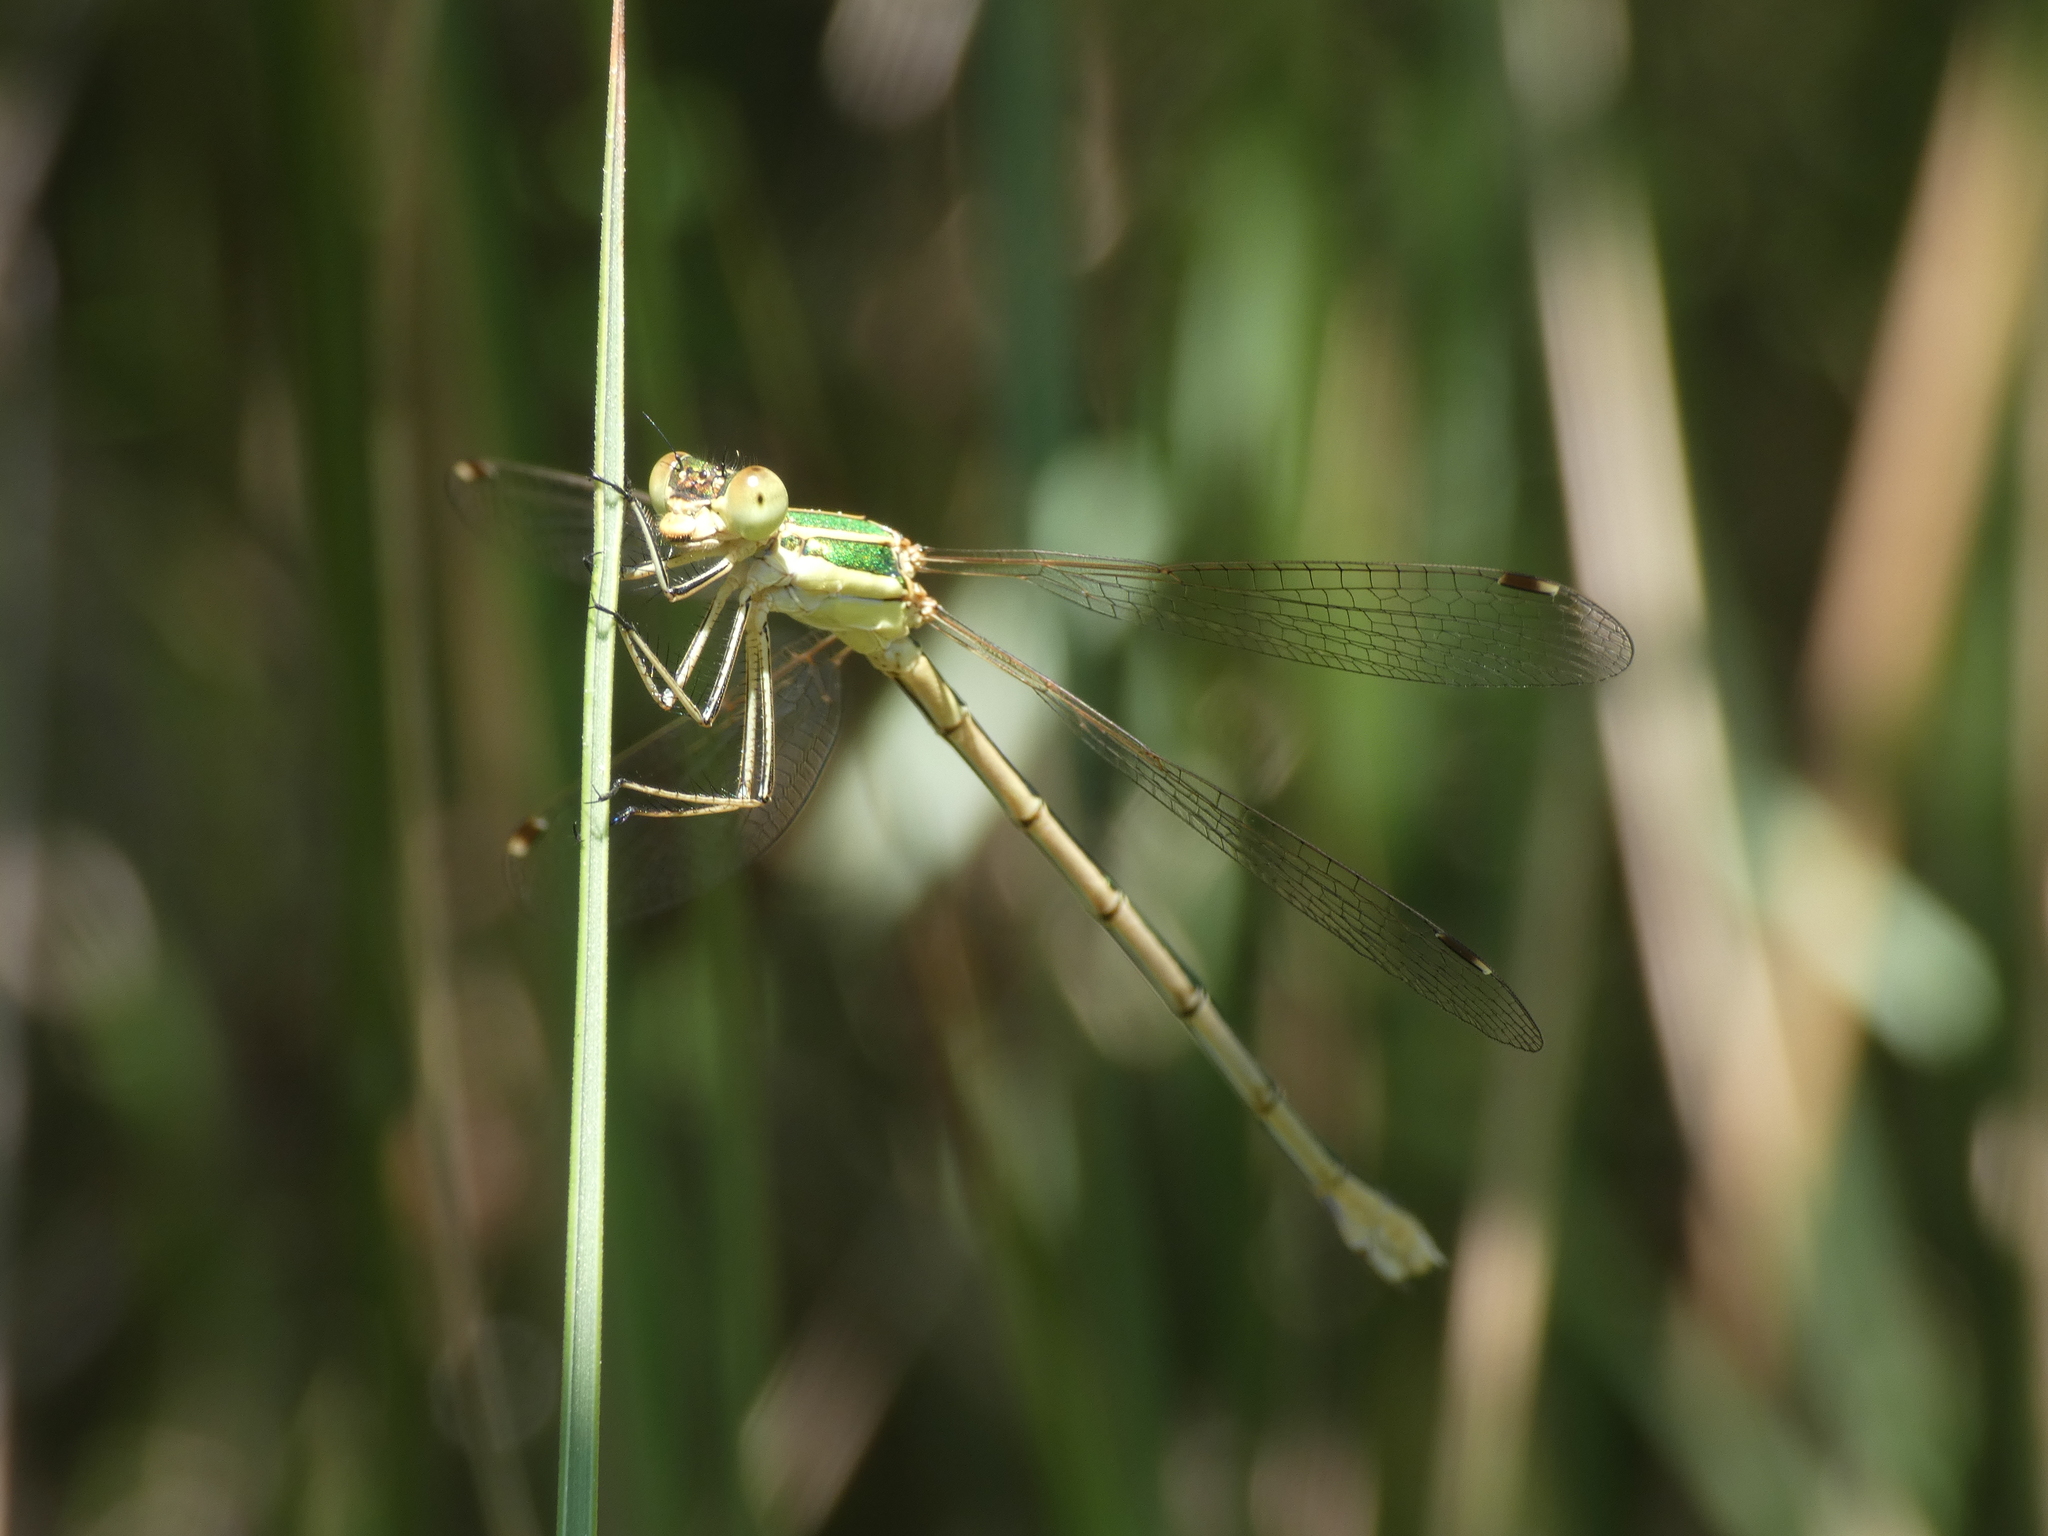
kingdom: Animalia
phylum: Arthropoda
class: Insecta
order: Odonata
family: Lestidae
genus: Lestes
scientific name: Lestes barbarus
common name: Migrant spreadwing
